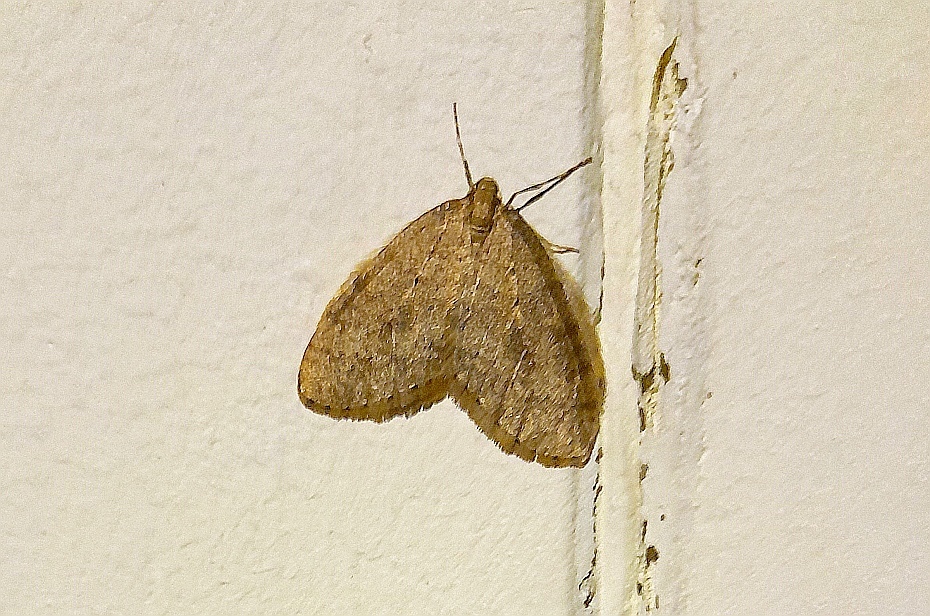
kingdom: Animalia
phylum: Arthropoda
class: Insecta
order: Lepidoptera
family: Geometridae
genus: Operophtera
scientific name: Operophtera brumata
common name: Winter moth
